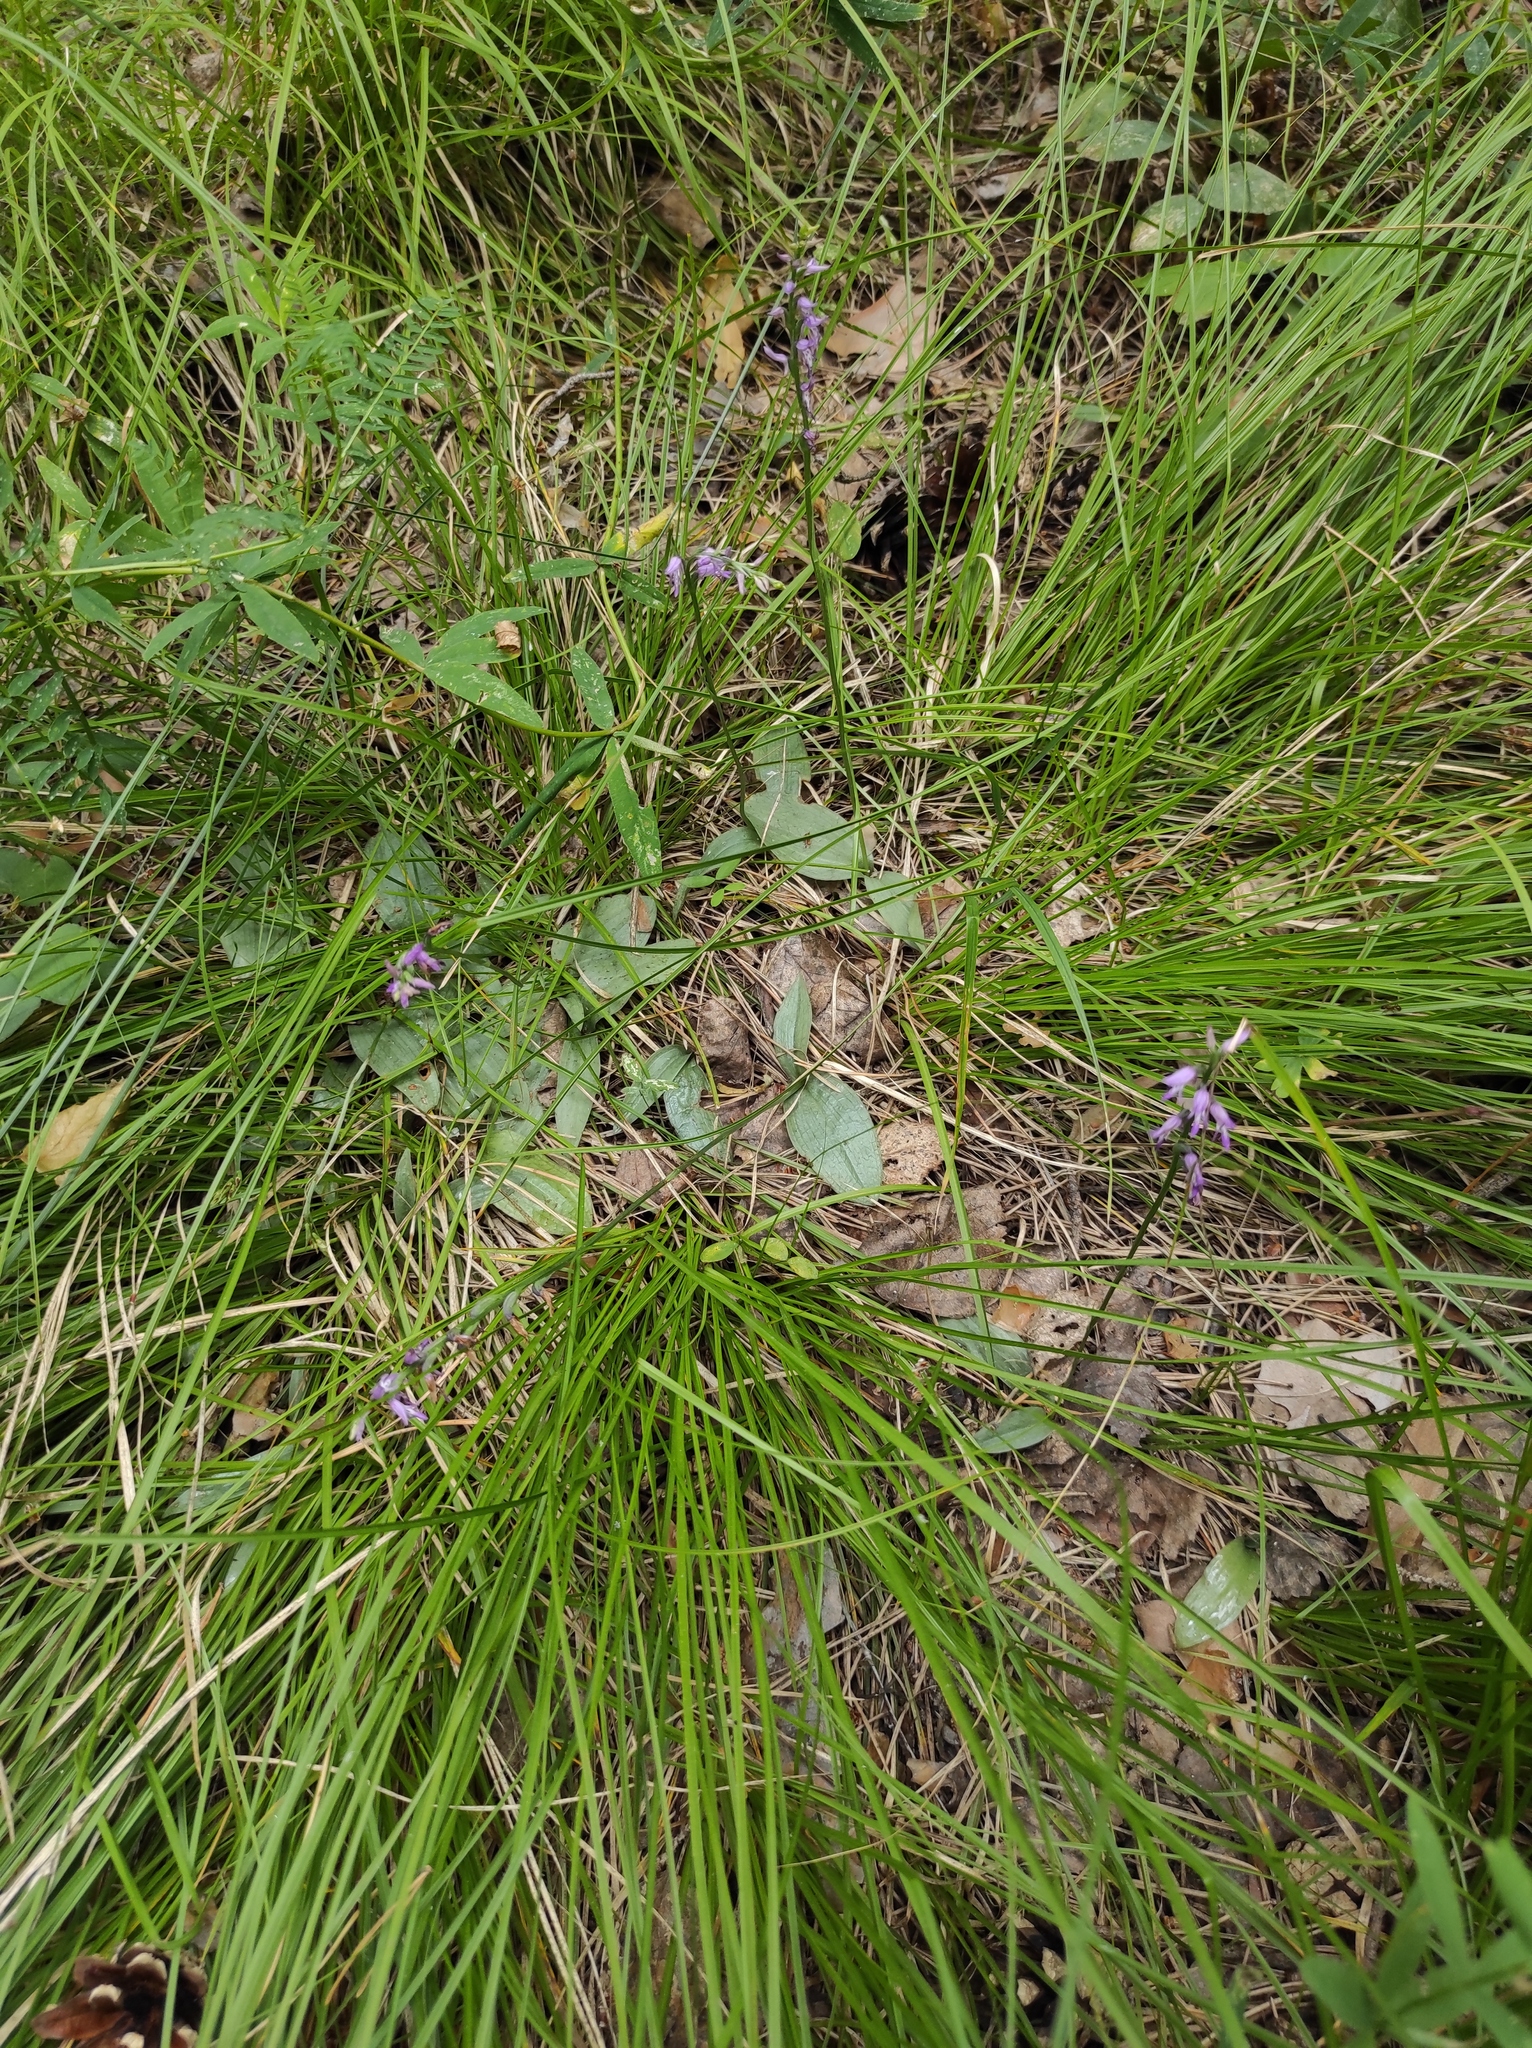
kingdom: Plantae
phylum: Tracheophyta
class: Liliopsida
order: Asparagales
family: Orchidaceae
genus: Hemipilia
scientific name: Hemipilia cucullata
